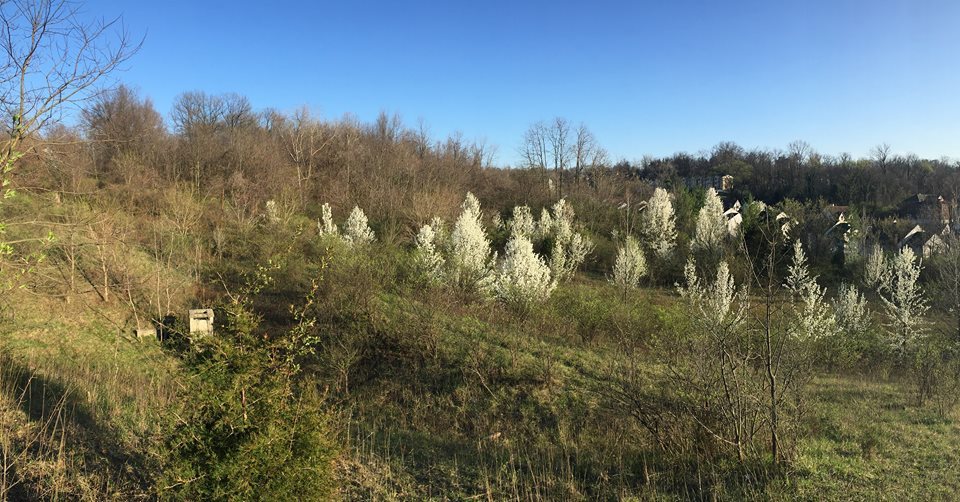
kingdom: Plantae
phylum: Tracheophyta
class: Magnoliopsida
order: Rosales
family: Rosaceae
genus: Pyrus
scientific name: Pyrus calleryana
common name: Callery pear
